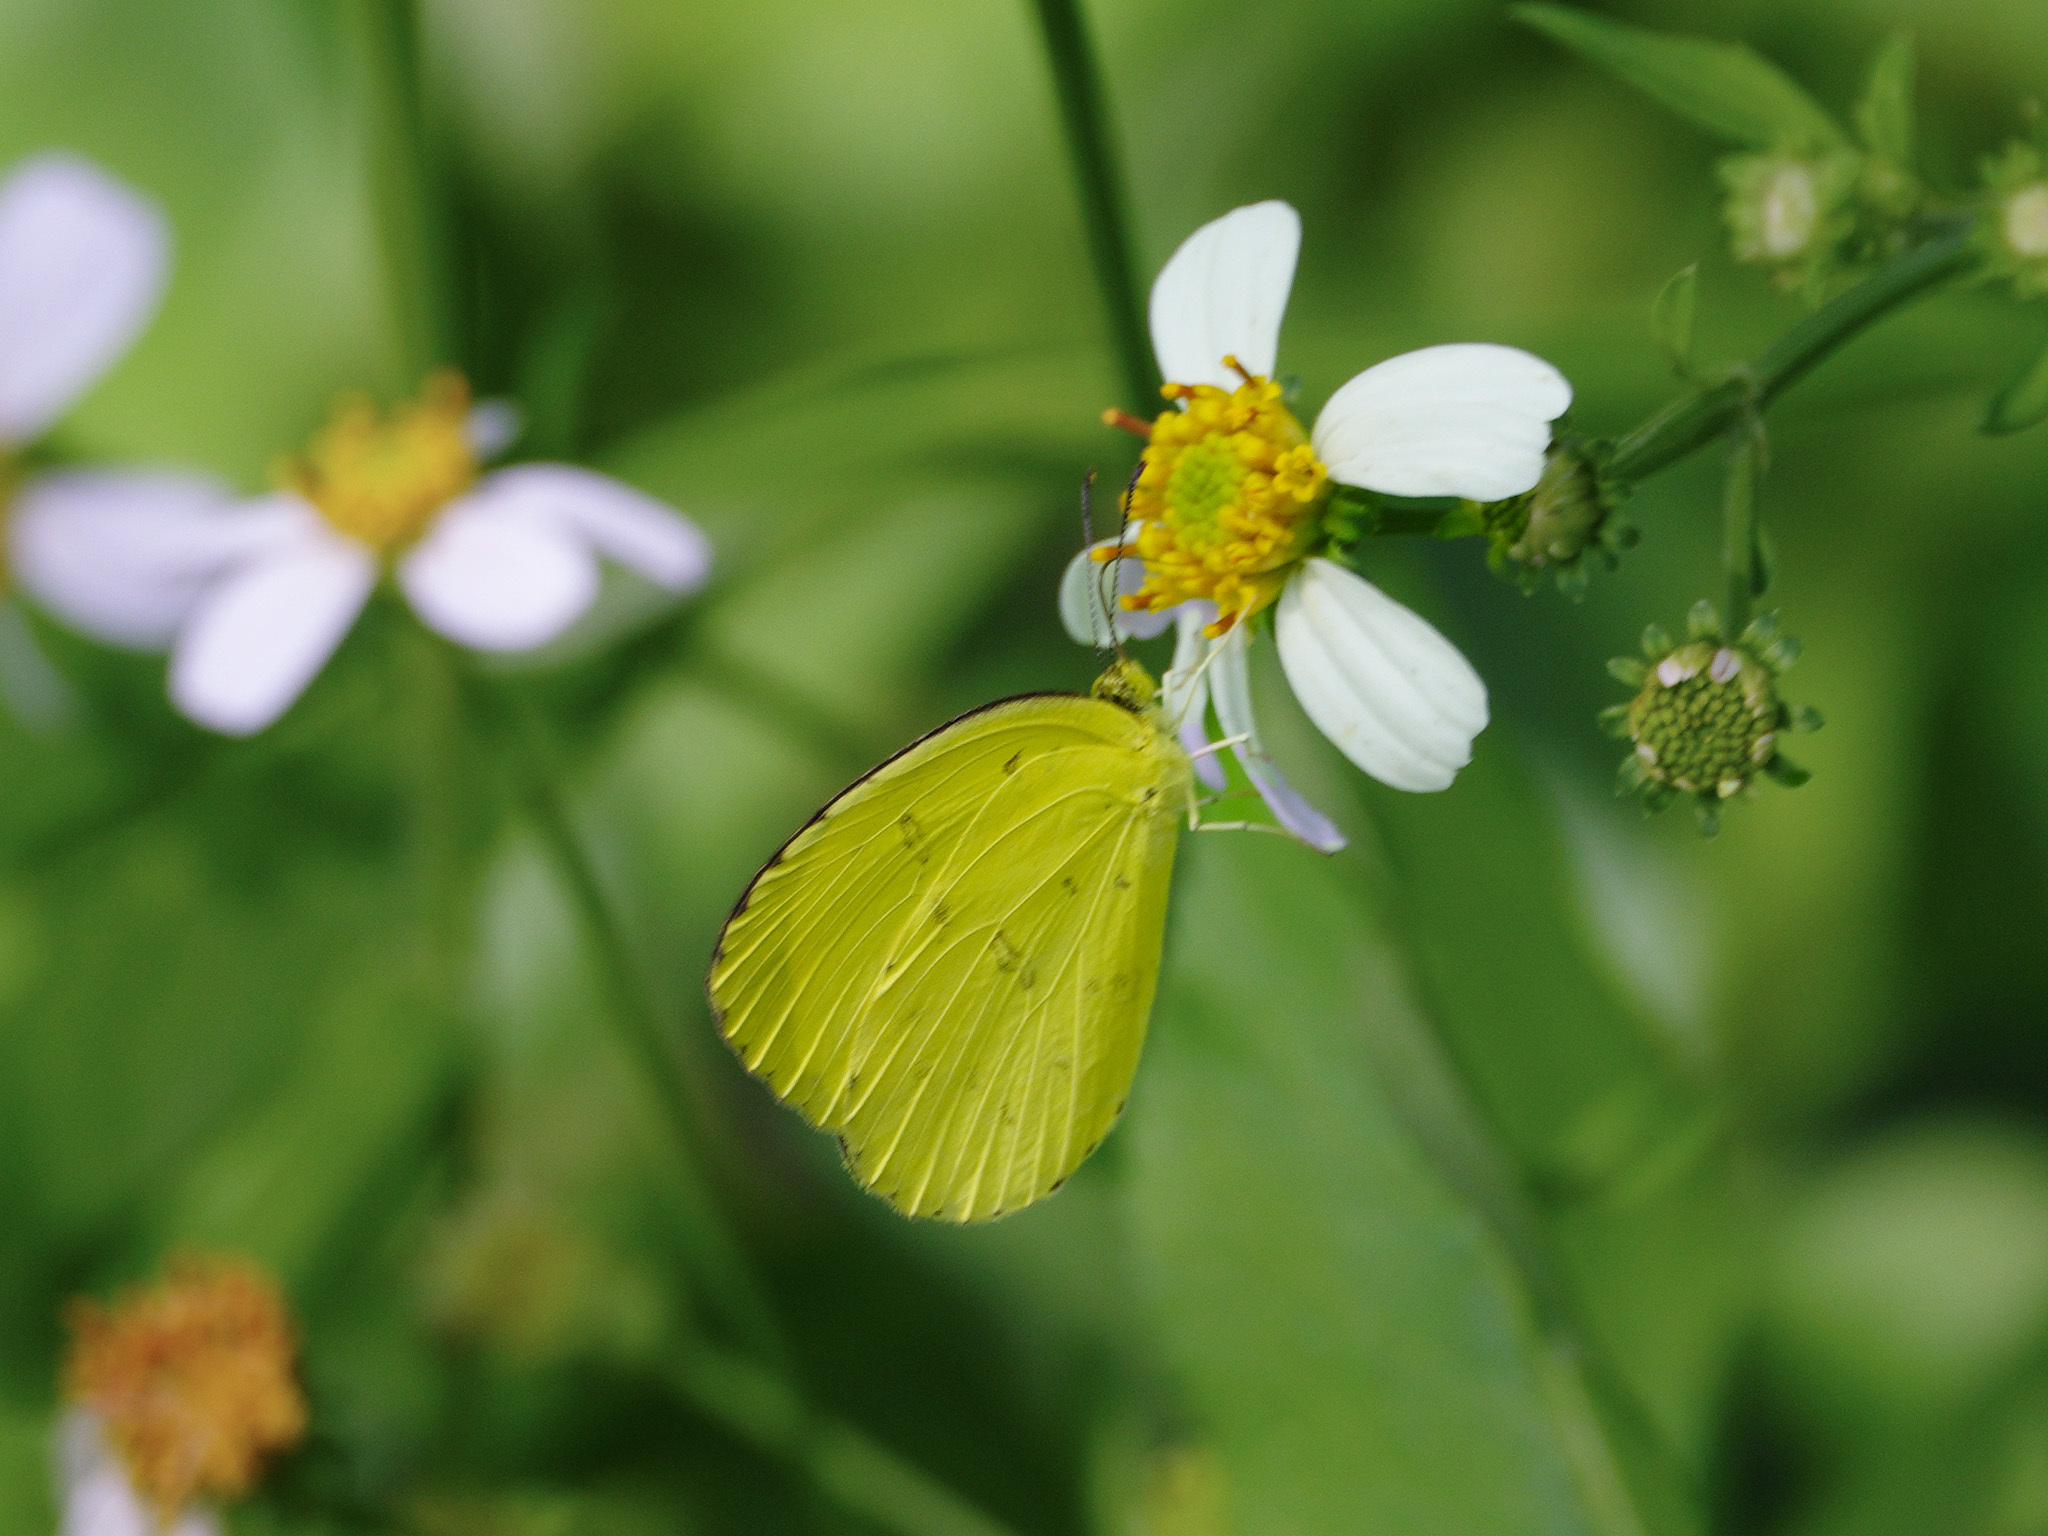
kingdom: Animalia
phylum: Arthropoda
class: Insecta
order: Lepidoptera
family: Pieridae
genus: Eurema
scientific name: Eurema blanda
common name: Three-spot grass yellow
